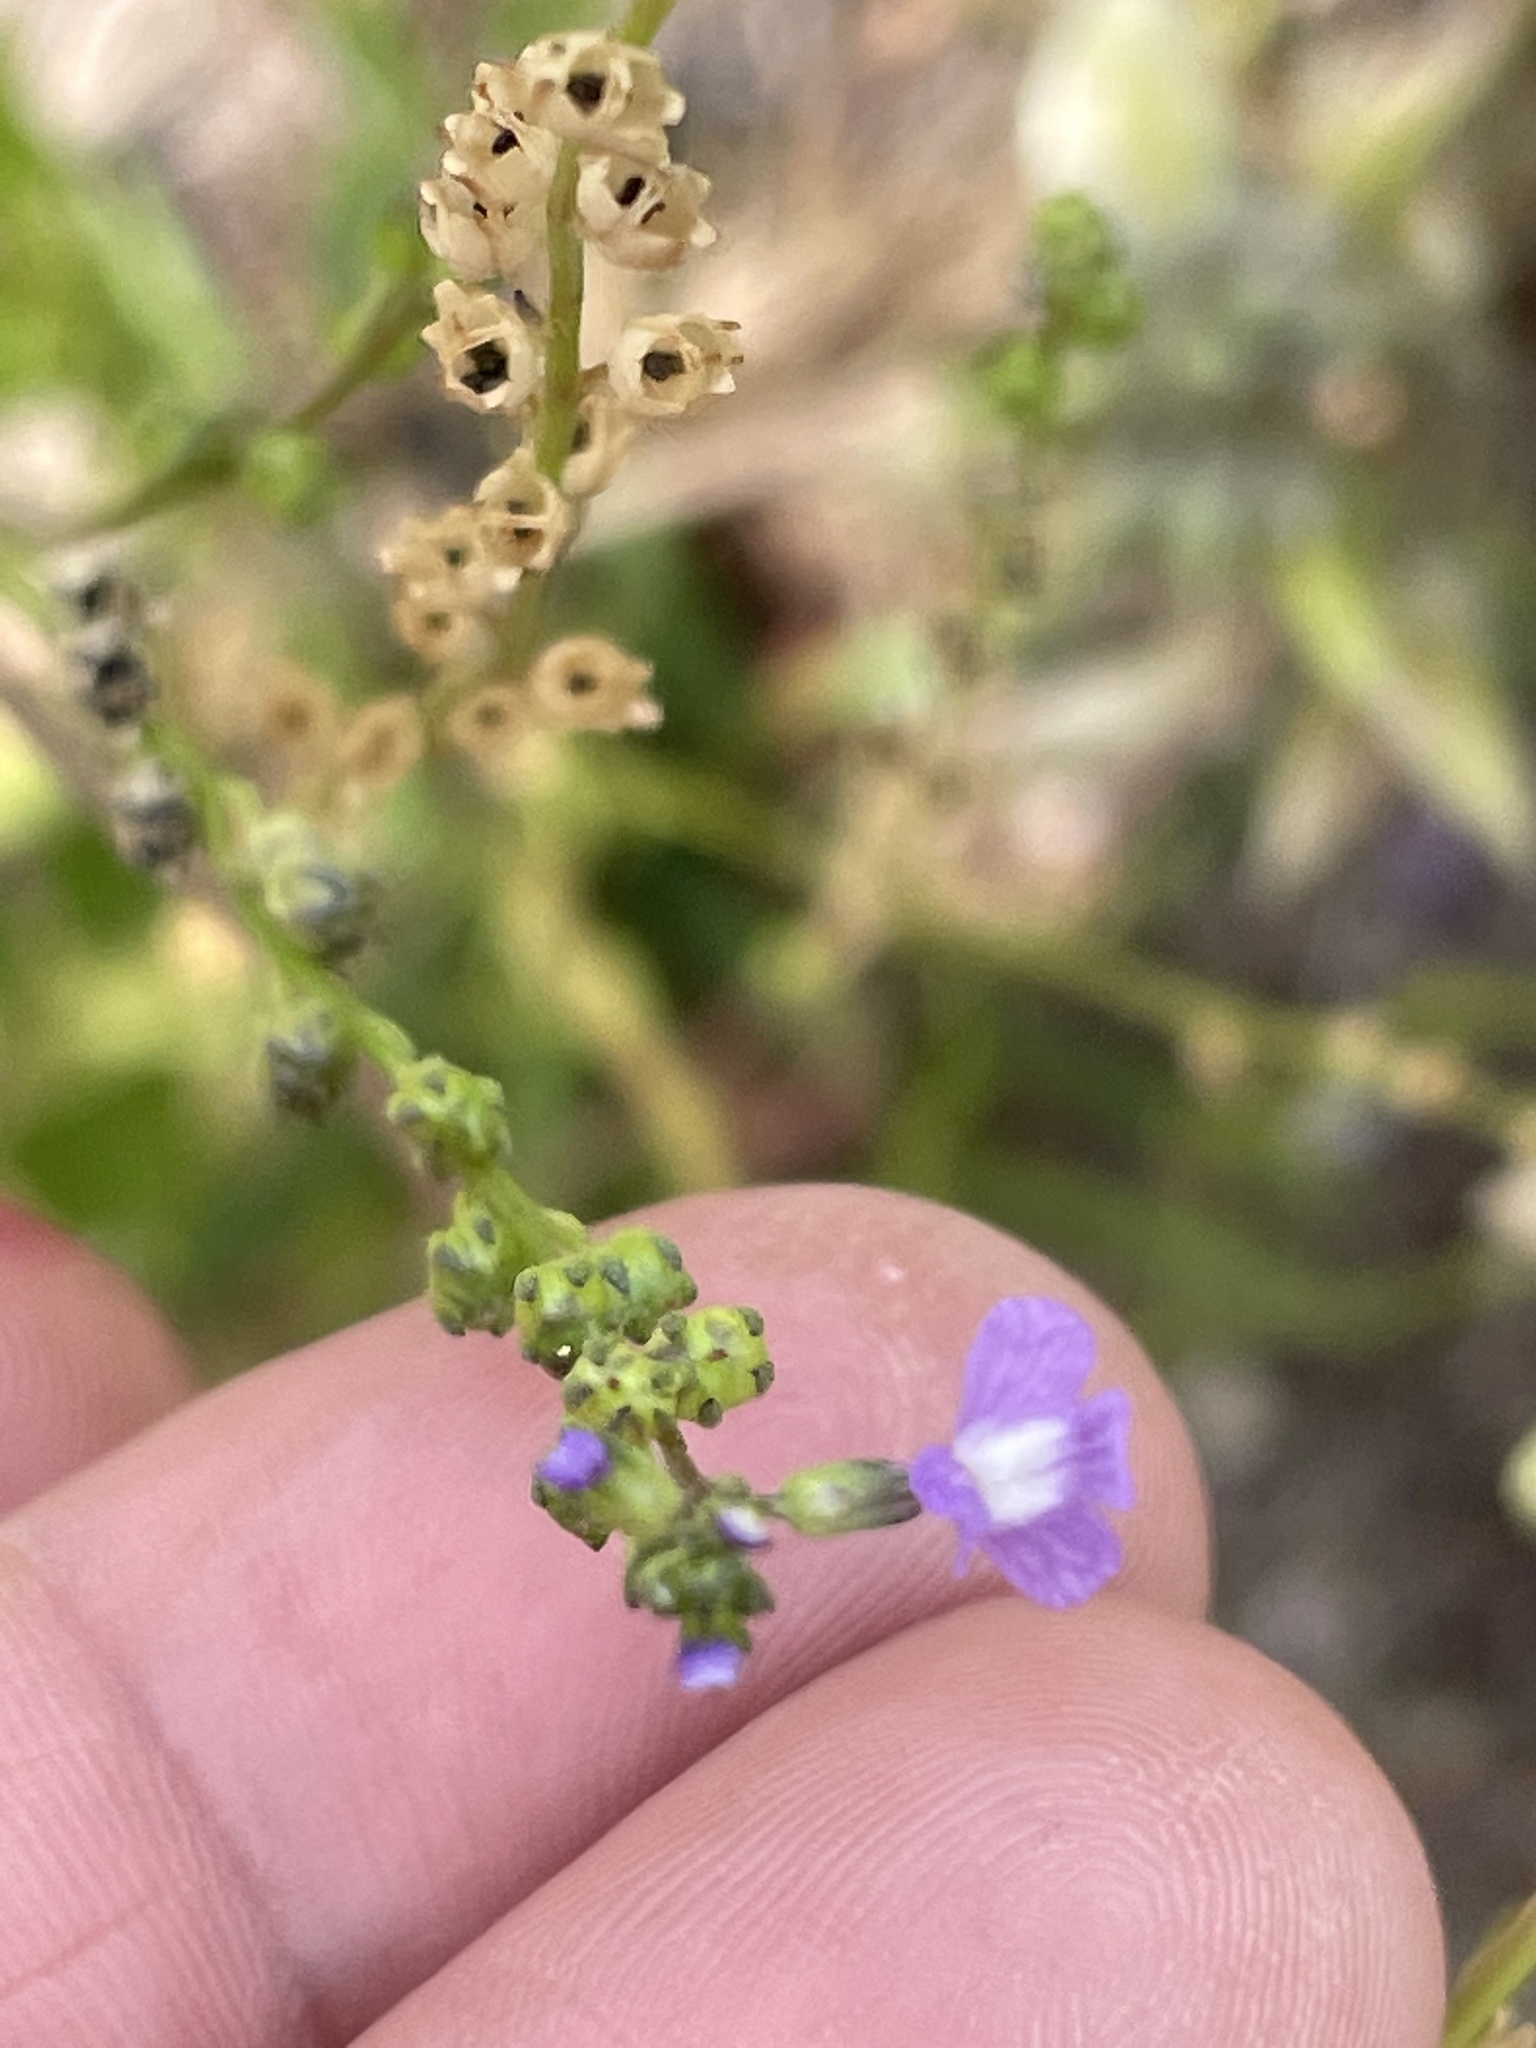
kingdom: Plantae
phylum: Tracheophyta
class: Magnoliopsida
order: Lamiales
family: Plantaginaceae
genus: Nuttallanthus
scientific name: Nuttallanthus canadensis
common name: Blue toadflax
